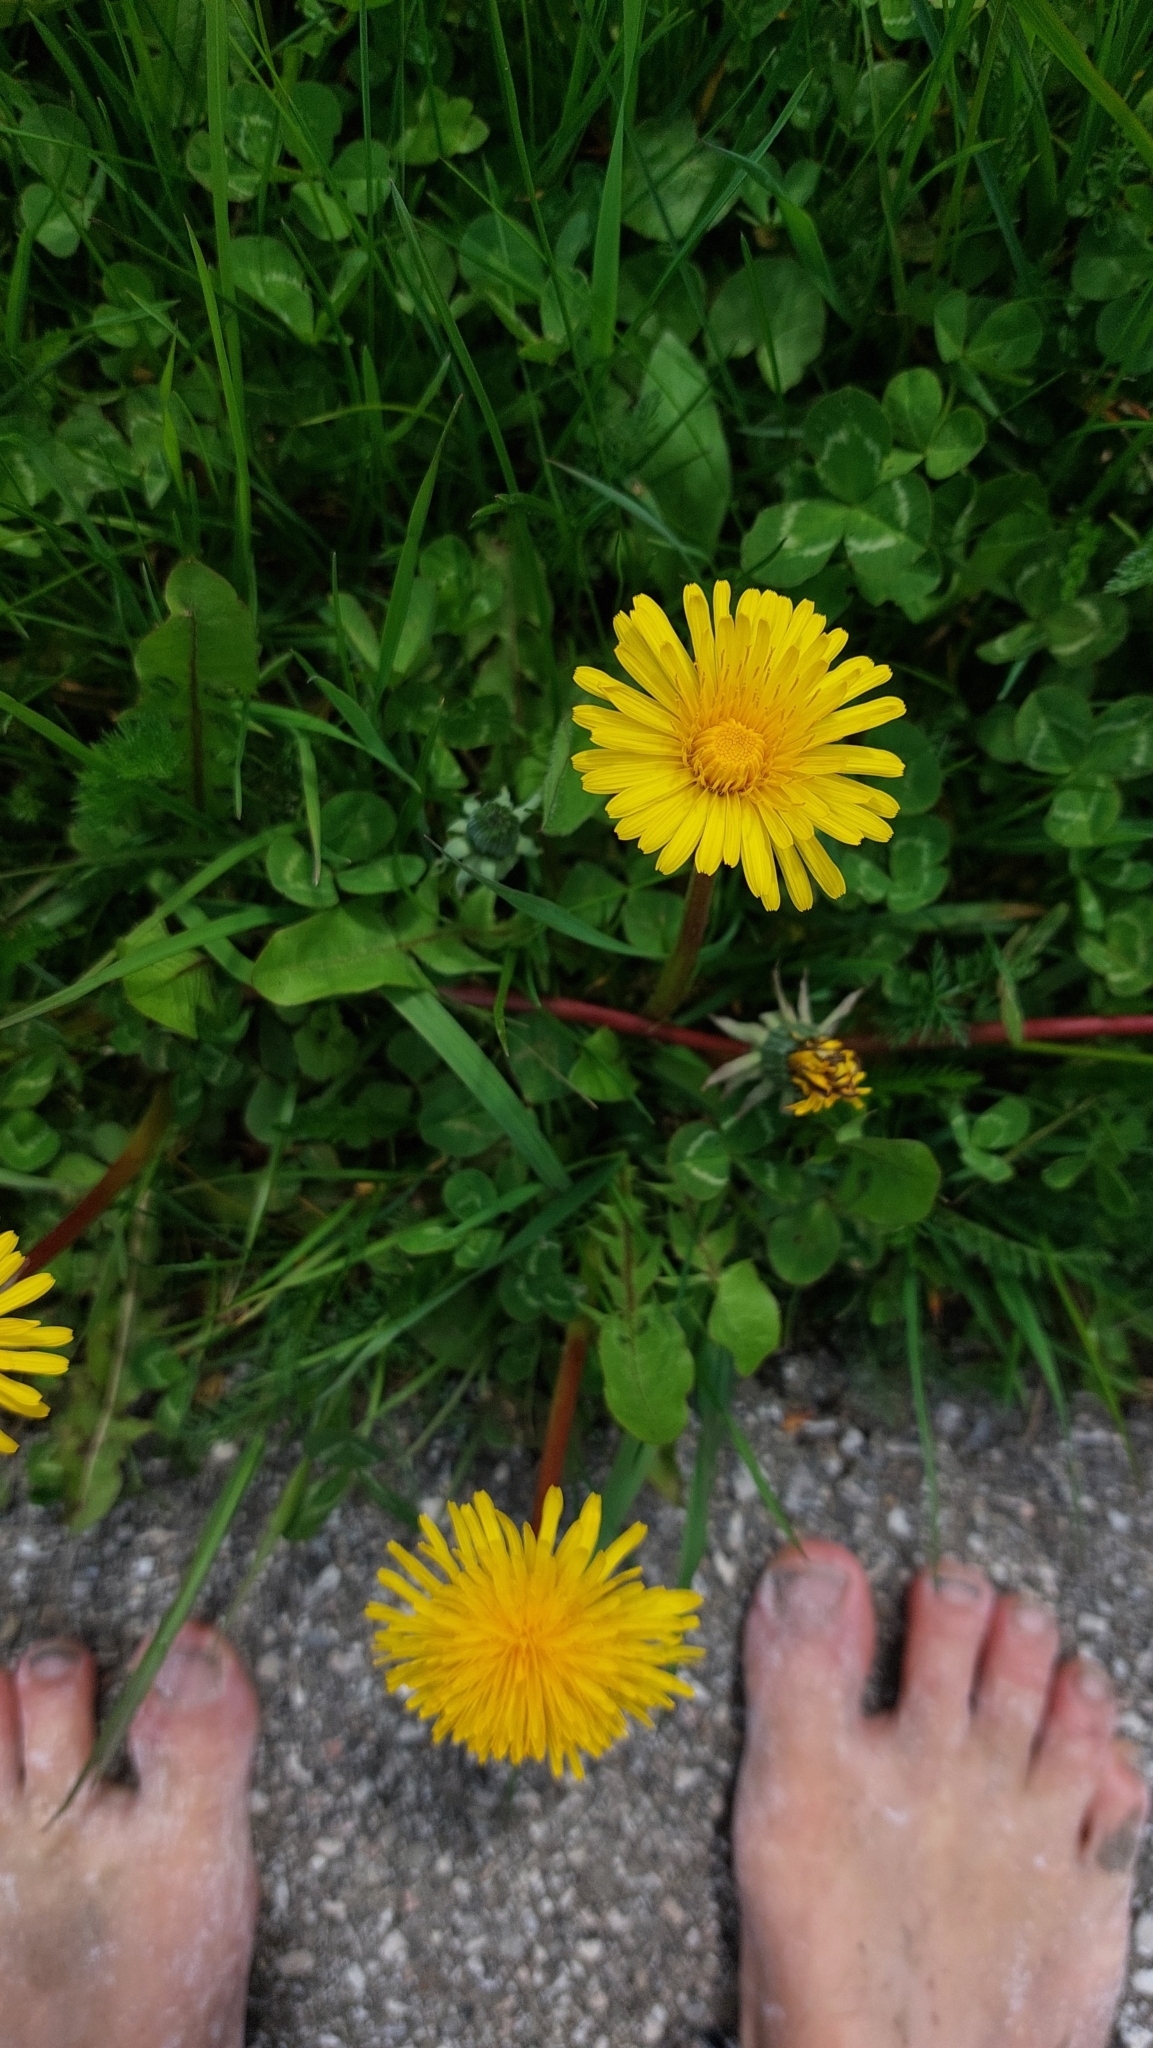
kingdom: Plantae
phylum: Tracheophyta
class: Magnoliopsida
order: Asterales
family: Asteraceae
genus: Taraxacum
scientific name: Taraxacum
